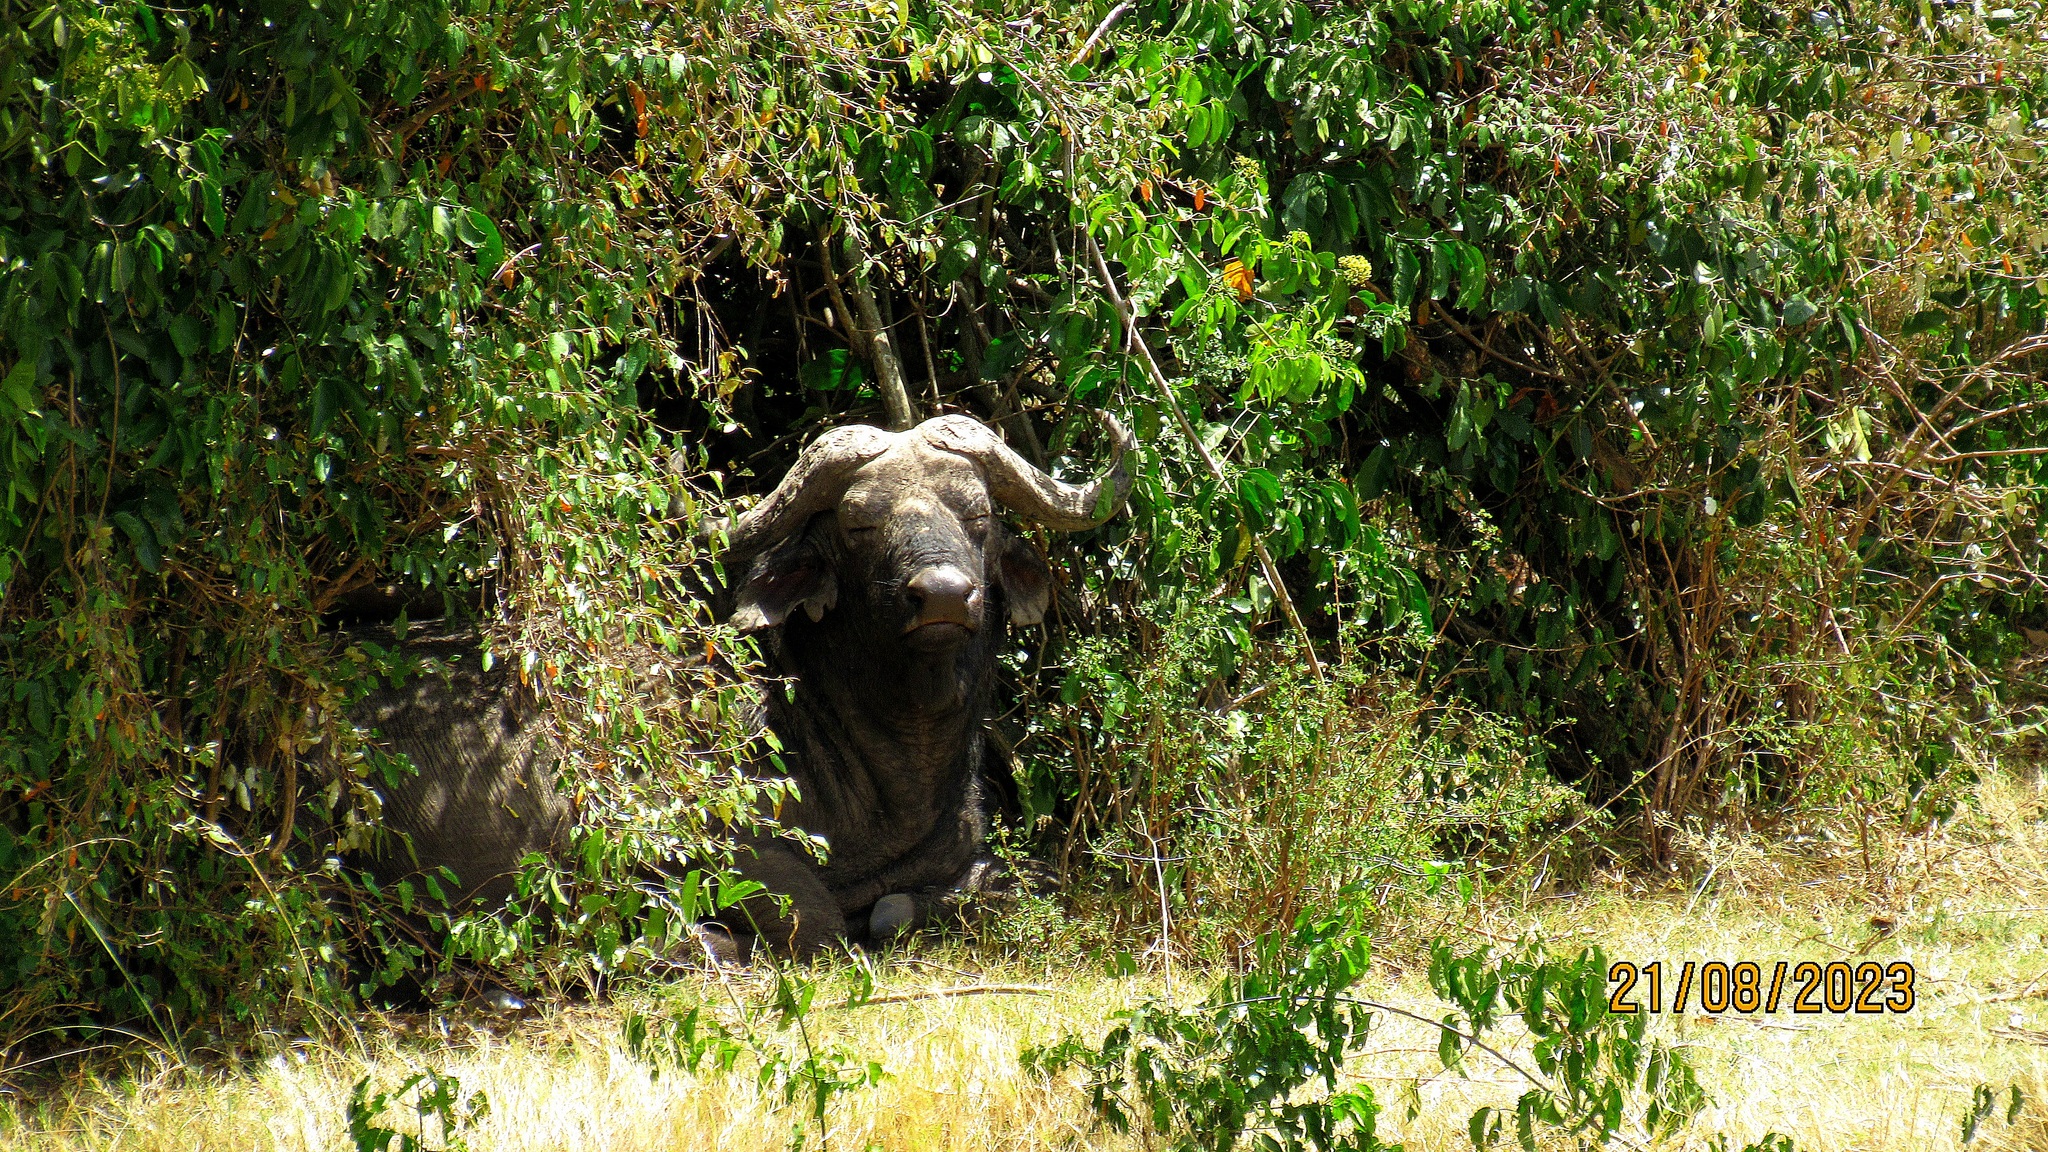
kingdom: Animalia
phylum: Chordata
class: Mammalia
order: Artiodactyla
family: Bovidae
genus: Syncerus
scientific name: Syncerus caffer
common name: African buffalo
